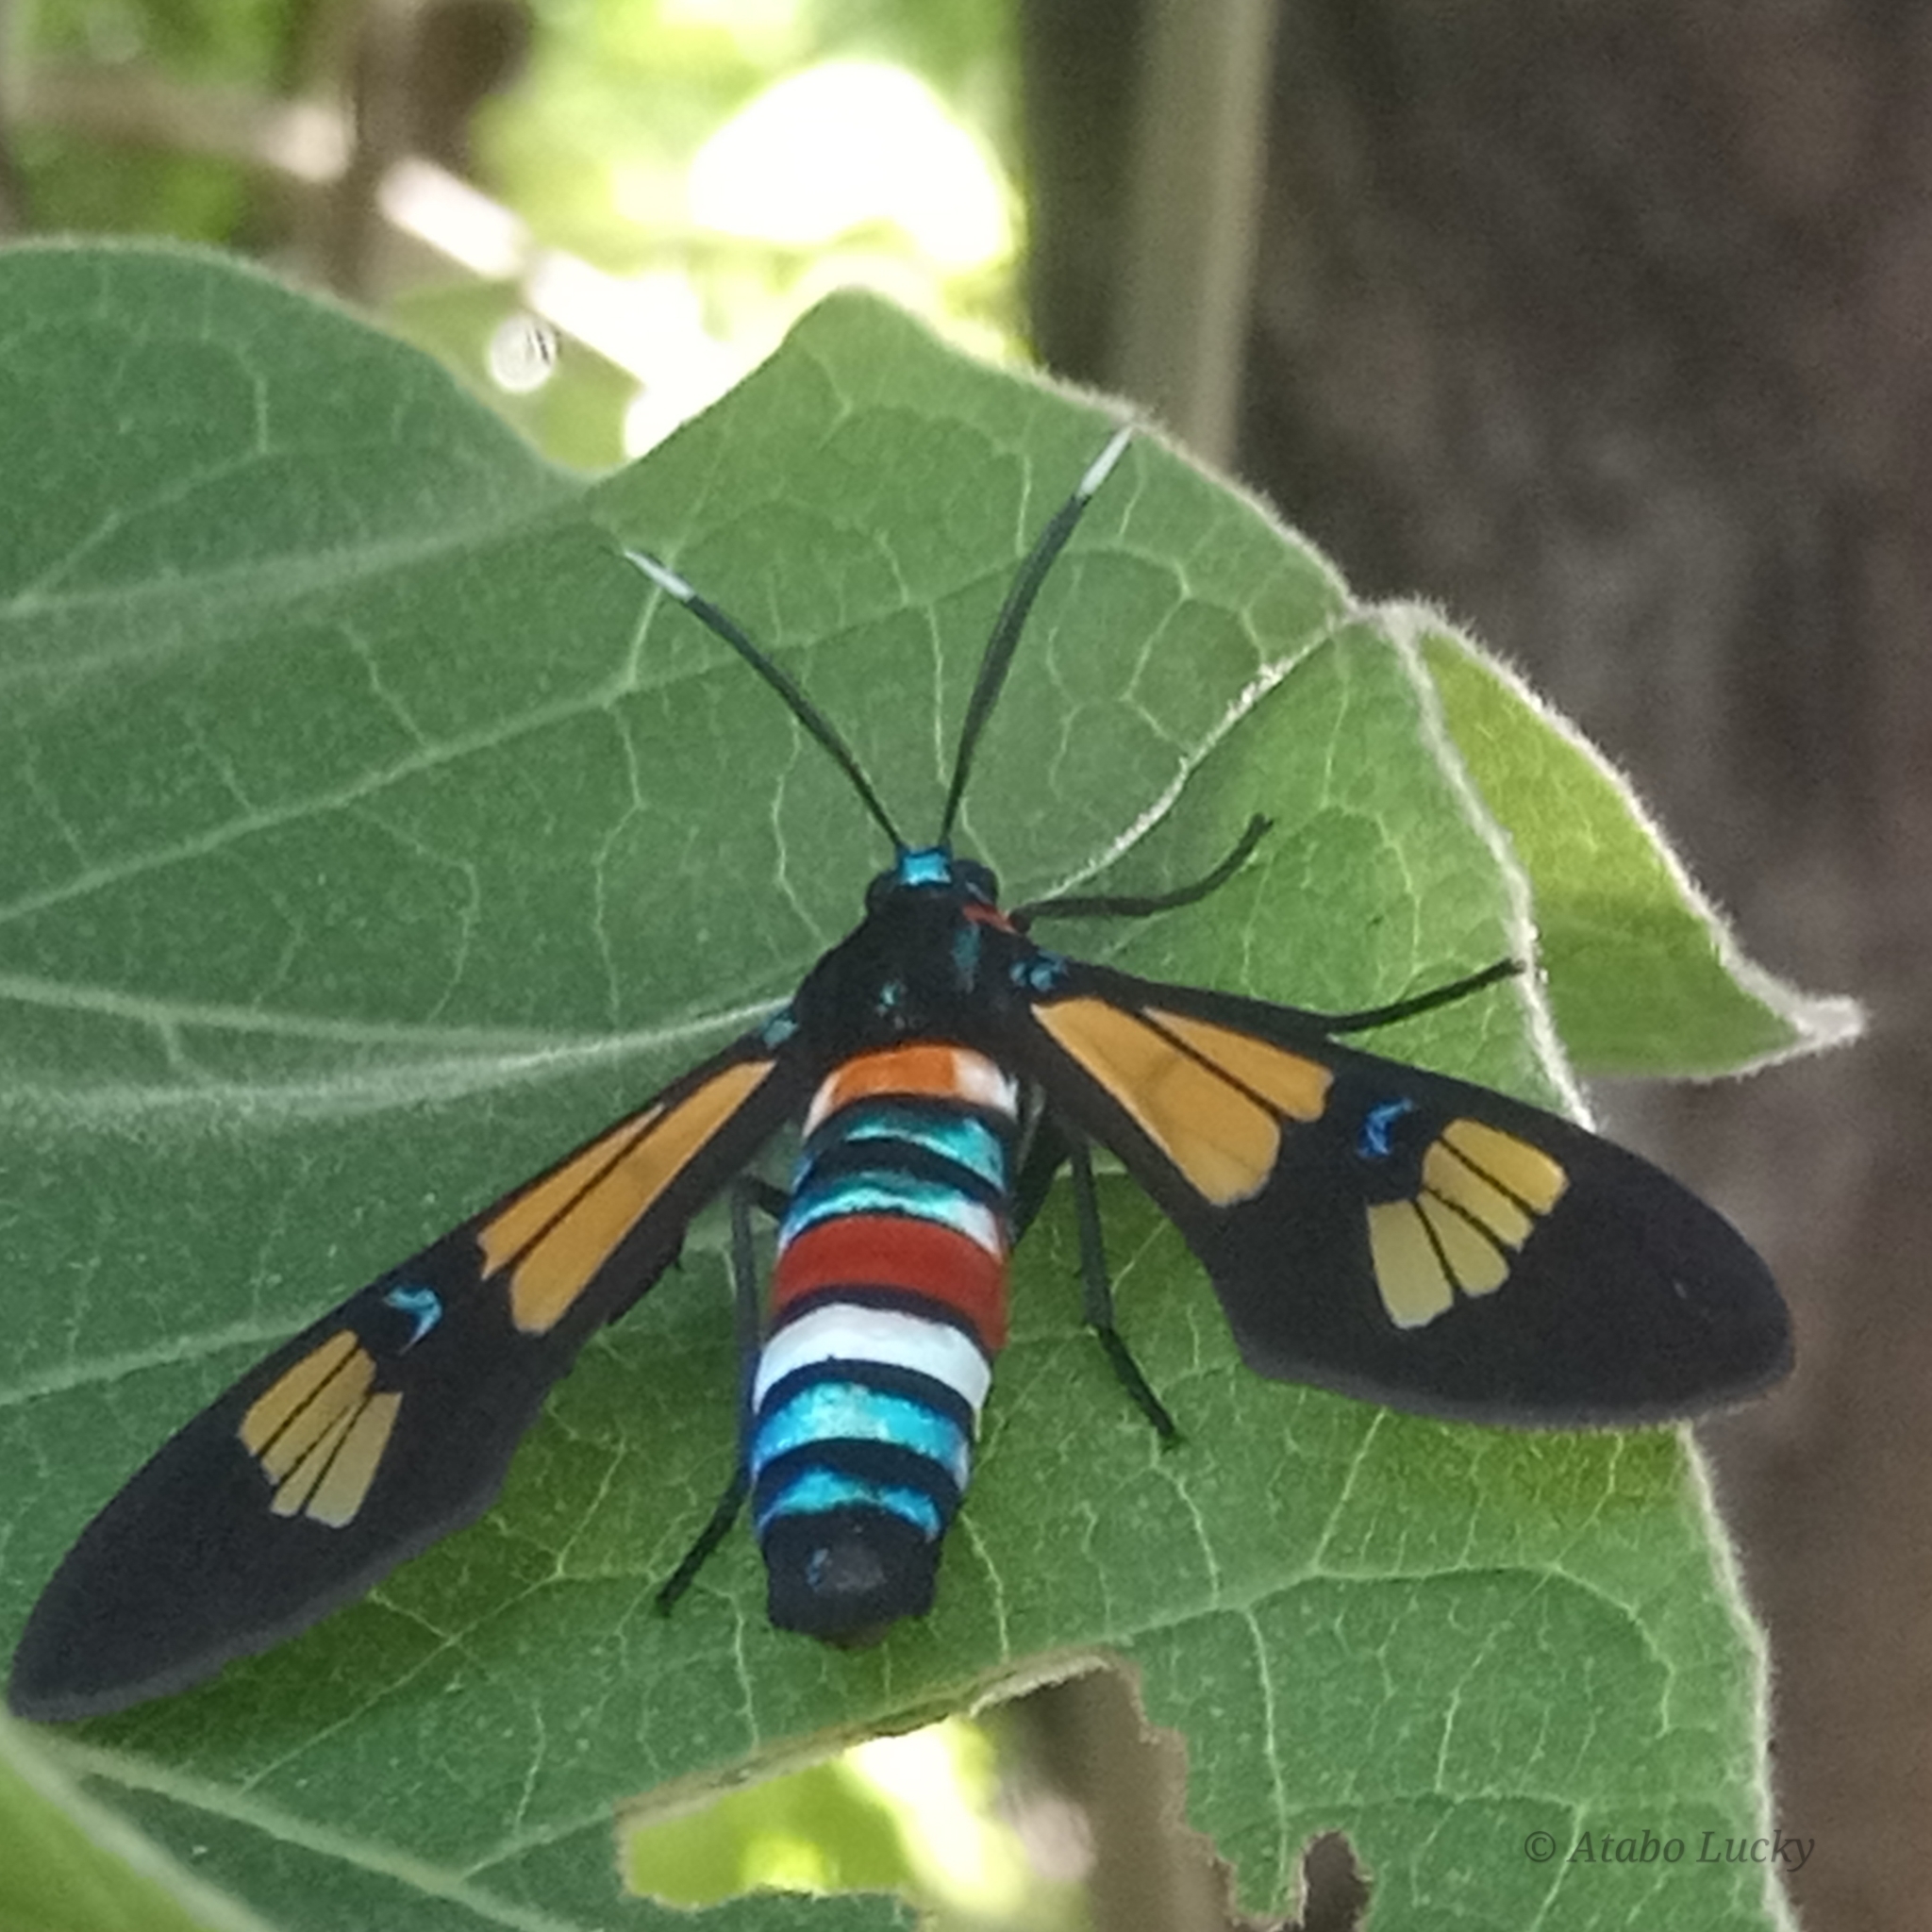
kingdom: Animalia
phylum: Arthropoda
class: Insecta
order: Lepidoptera
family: Erebidae
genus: Euchromia
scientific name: Euchromia lethe
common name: Basker
